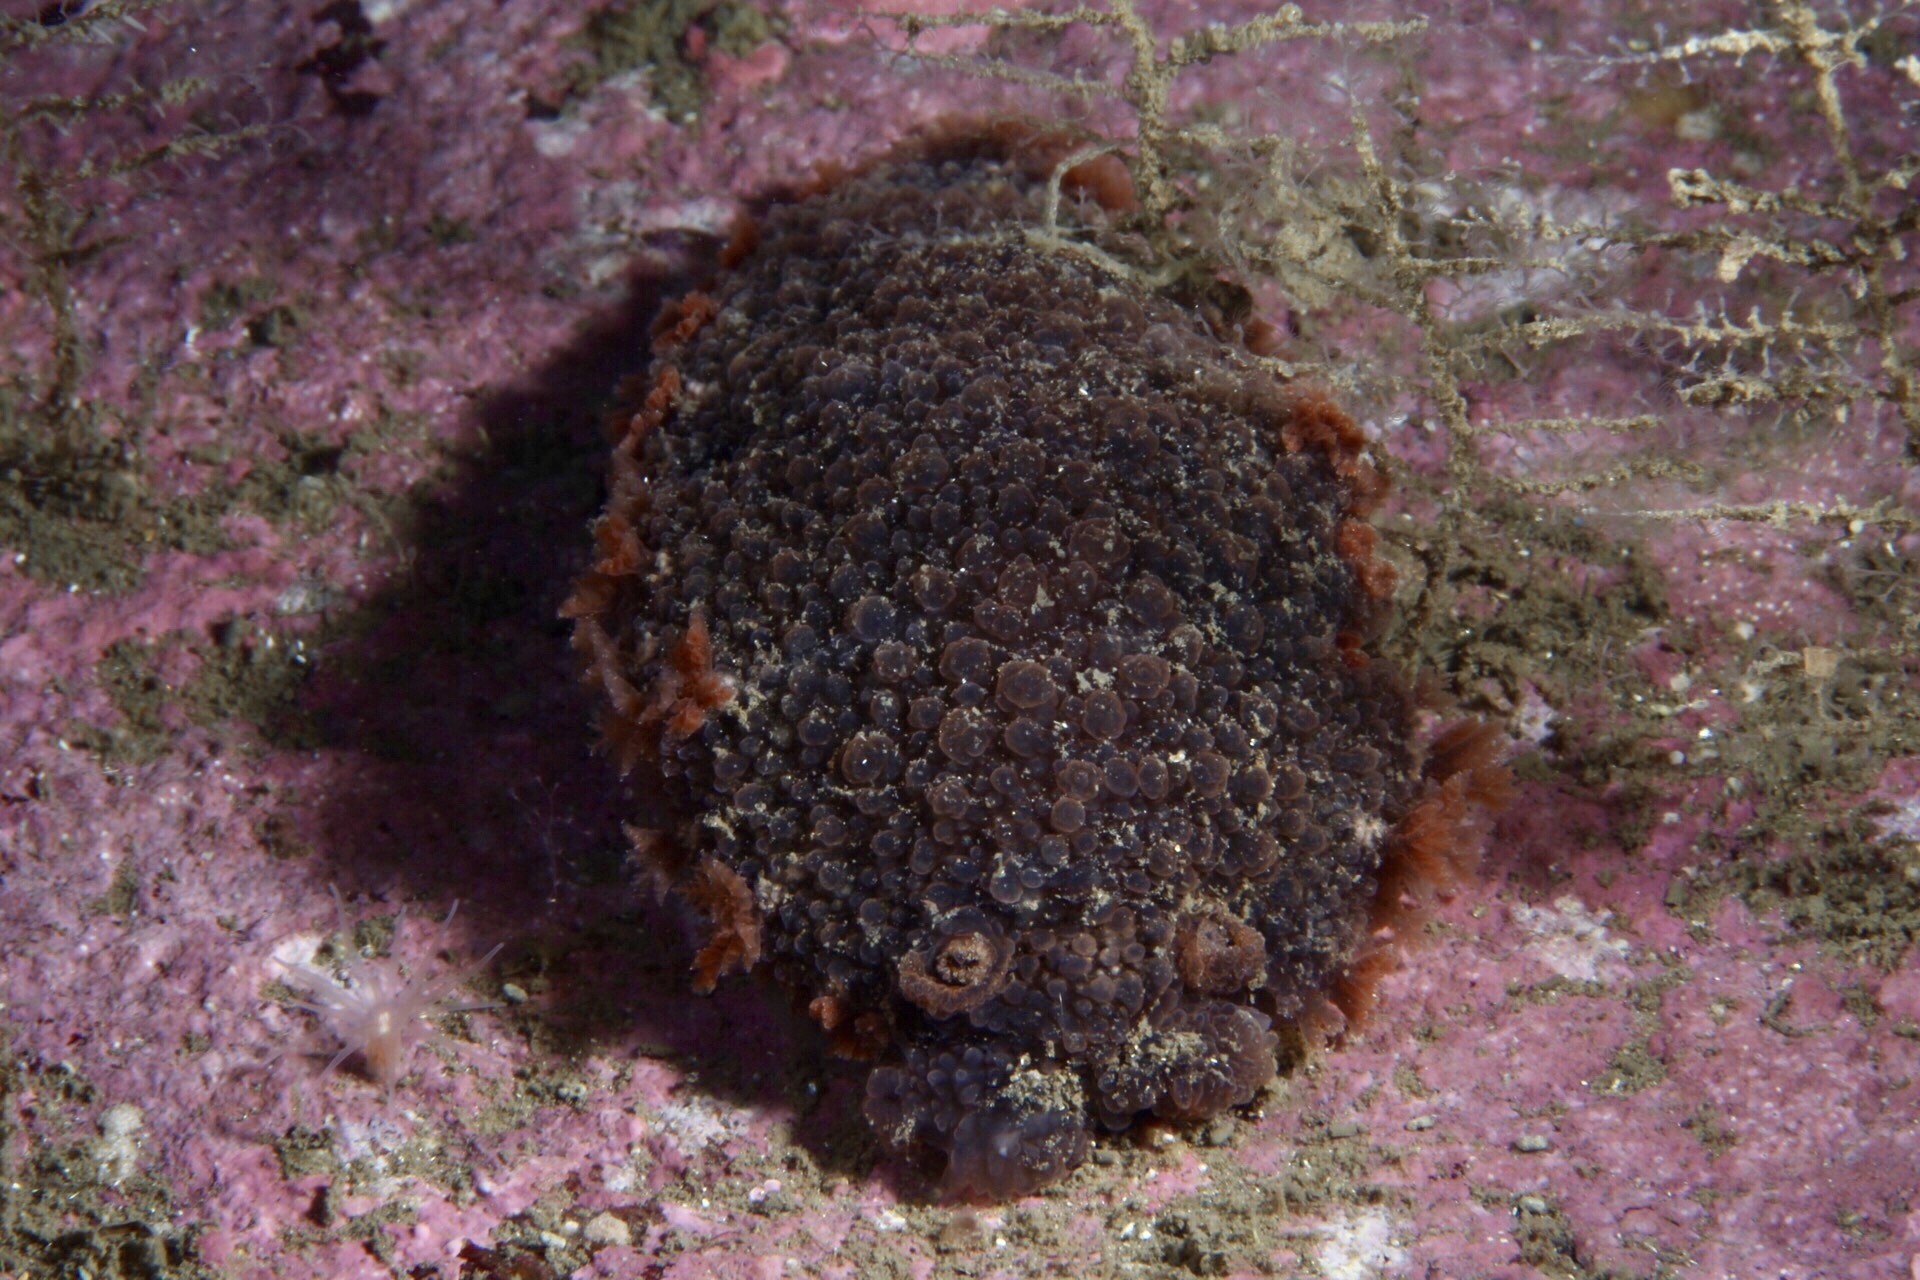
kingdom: Animalia
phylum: Mollusca
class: Gastropoda
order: Nudibranchia
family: Tritoniidae
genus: Tritonia
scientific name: Tritonia hombergii
